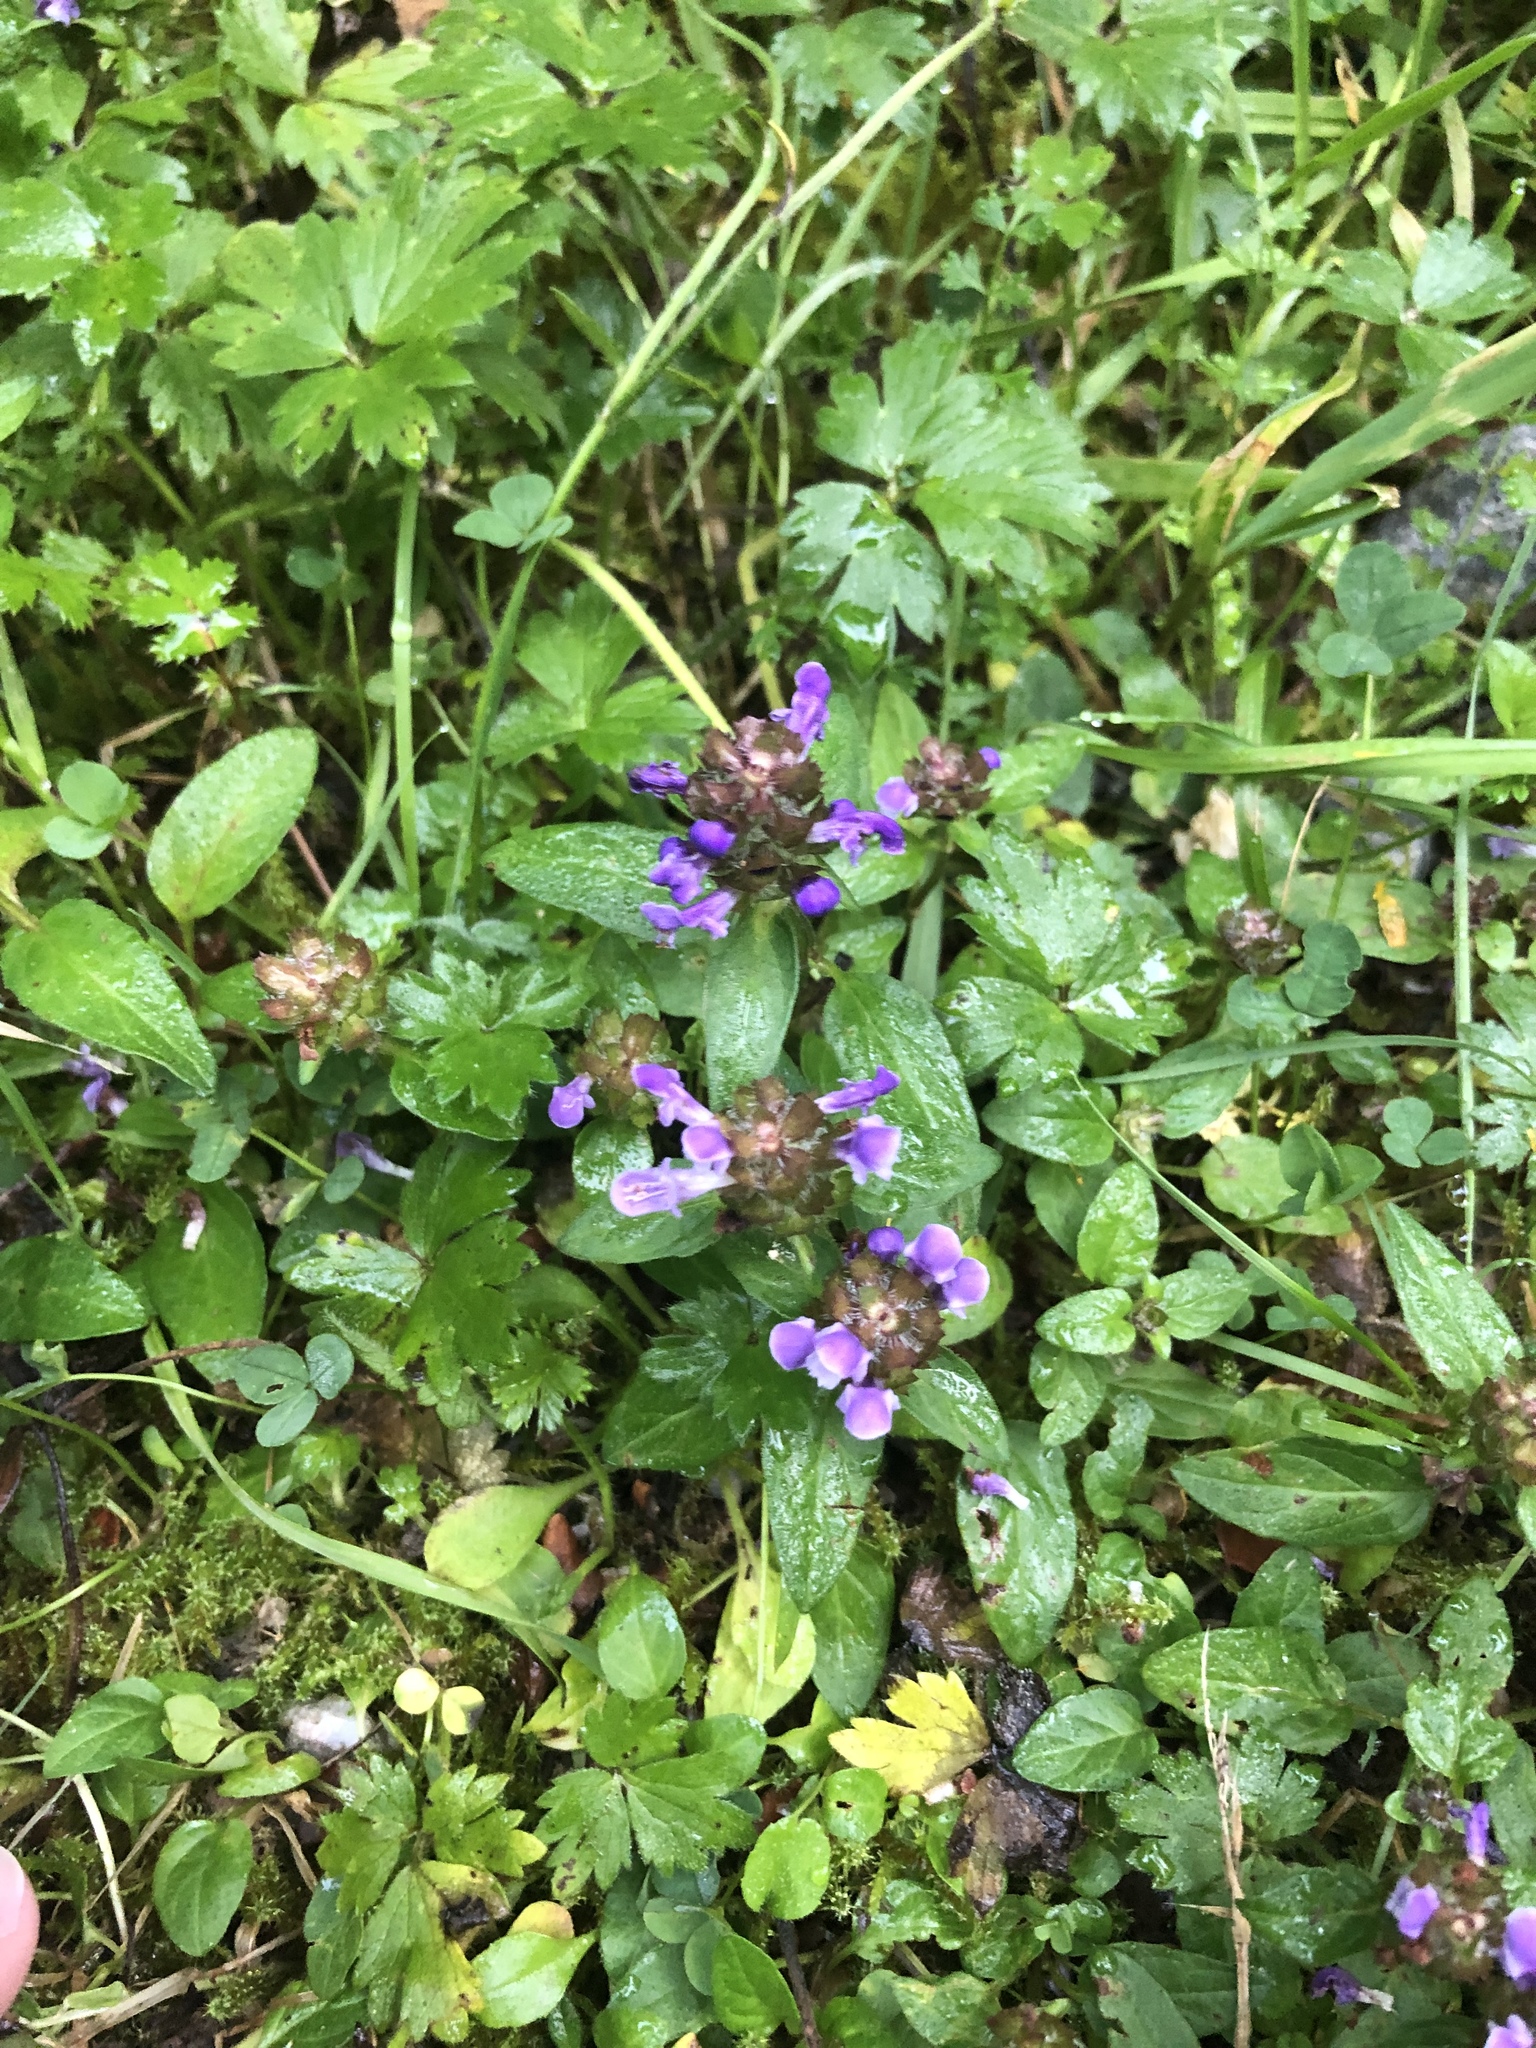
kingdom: Plantae
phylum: Tracheophyta
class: Magnoliopsida
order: Lamiales
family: Lamiaceae
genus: Prunella
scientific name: Prunella vulgaris
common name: Heal-all
